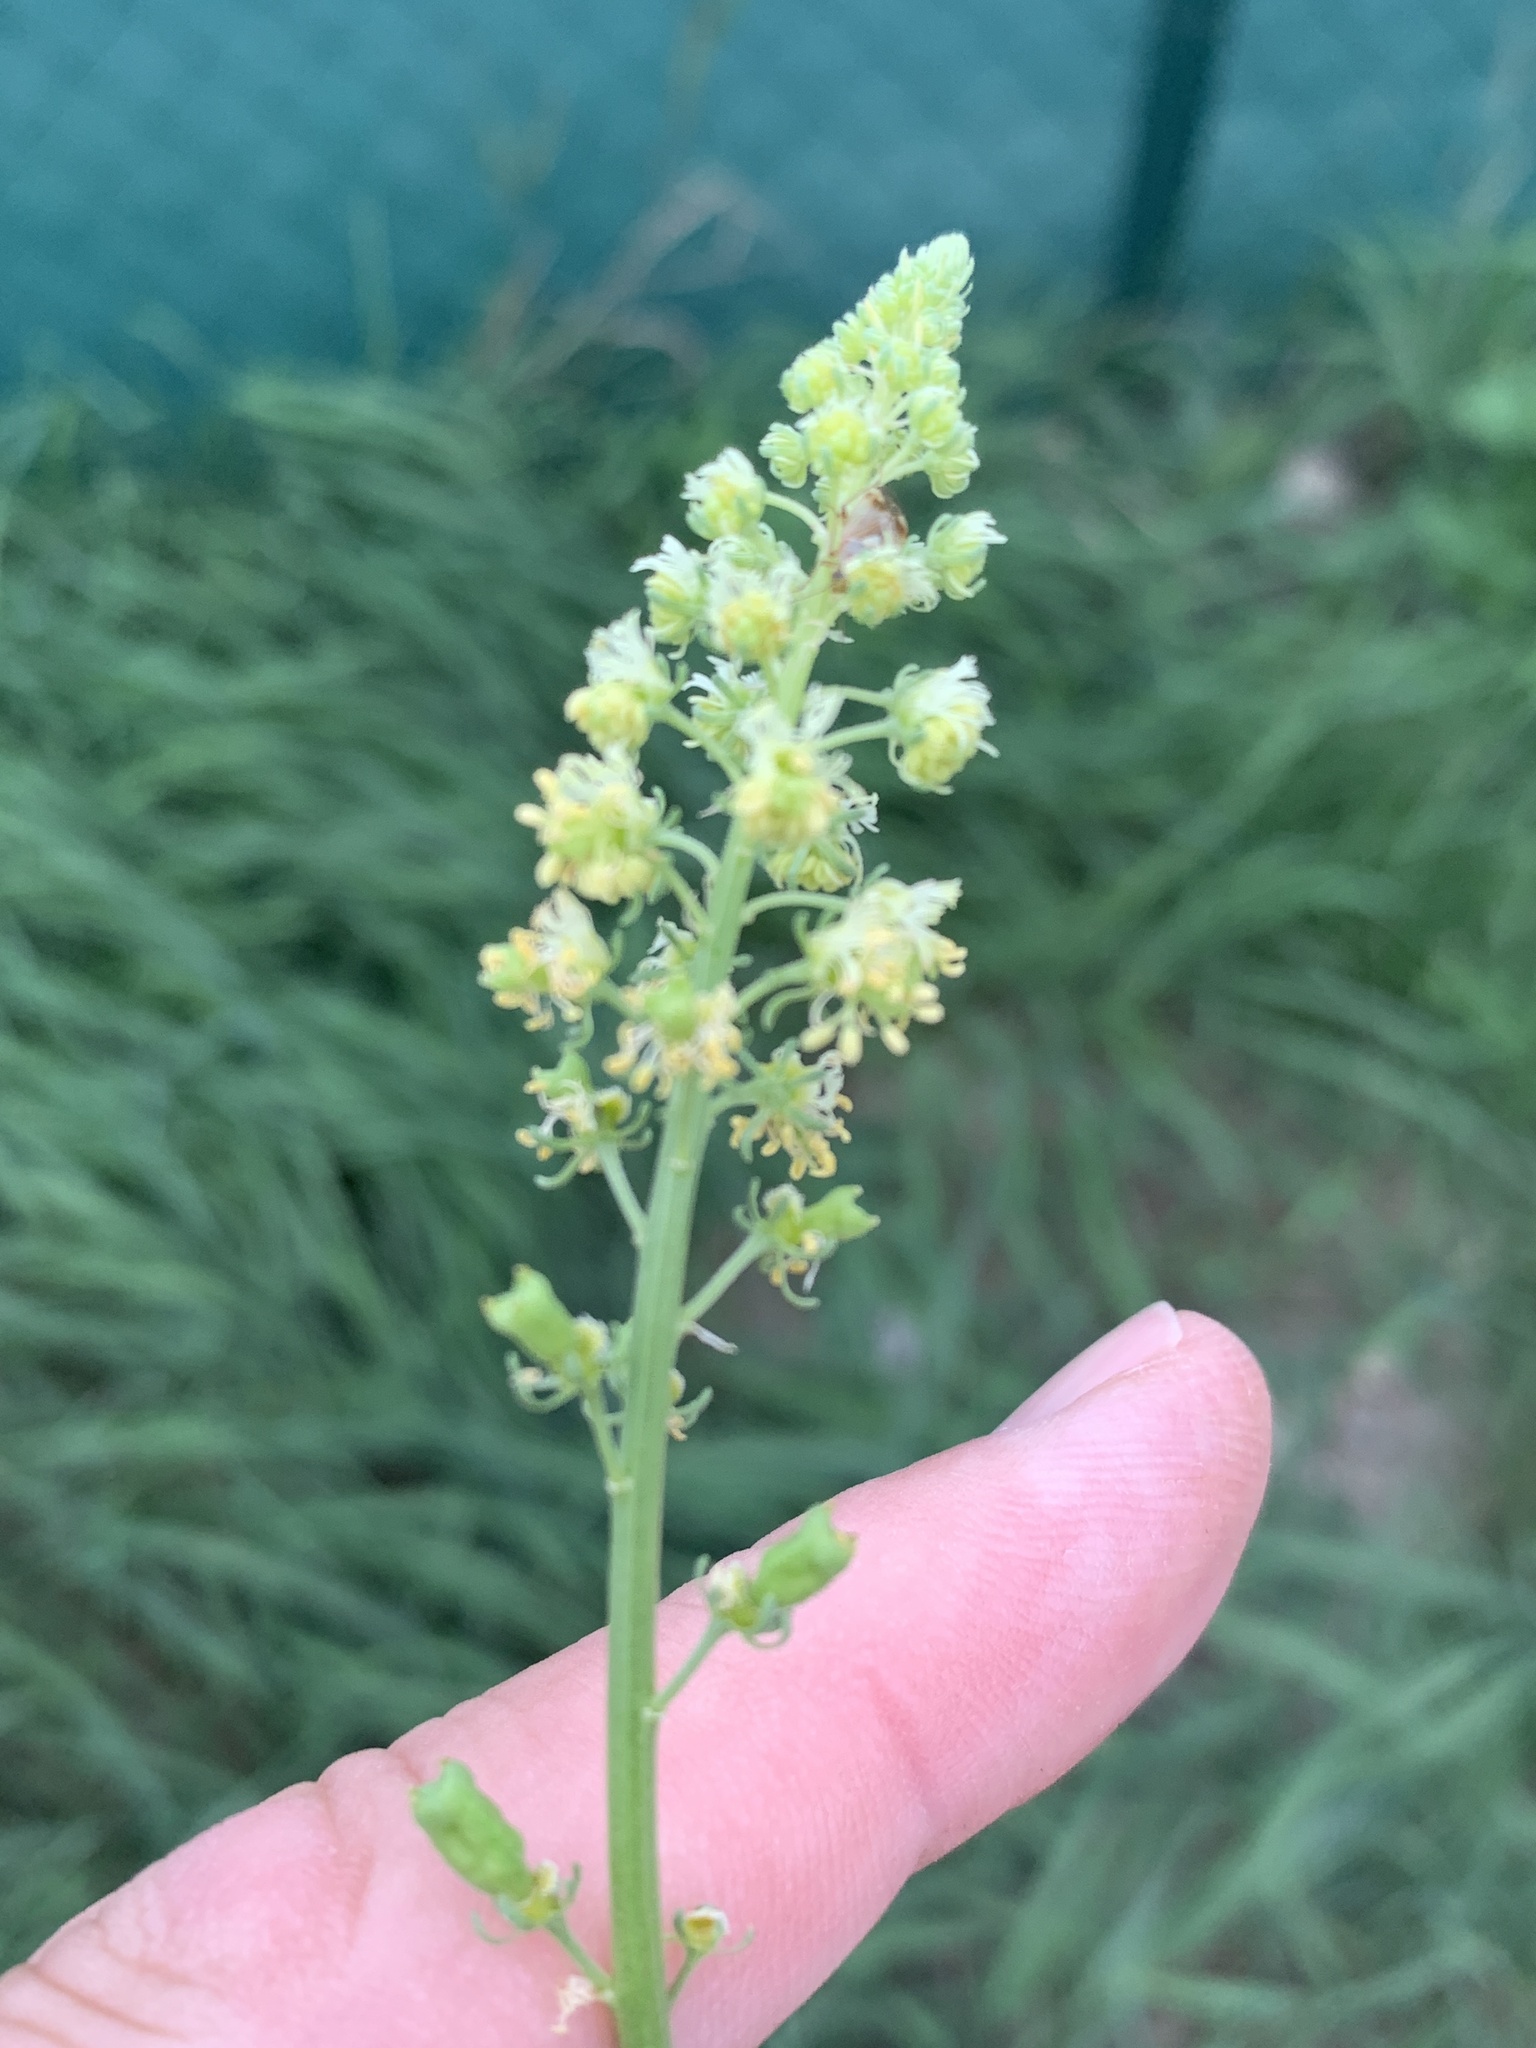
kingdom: Plantae
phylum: Tracheophyta
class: Magnoliopsida
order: Brassicales
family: Resedaceae
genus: Reseda
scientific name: Reseda lutea
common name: Wild mignonette
